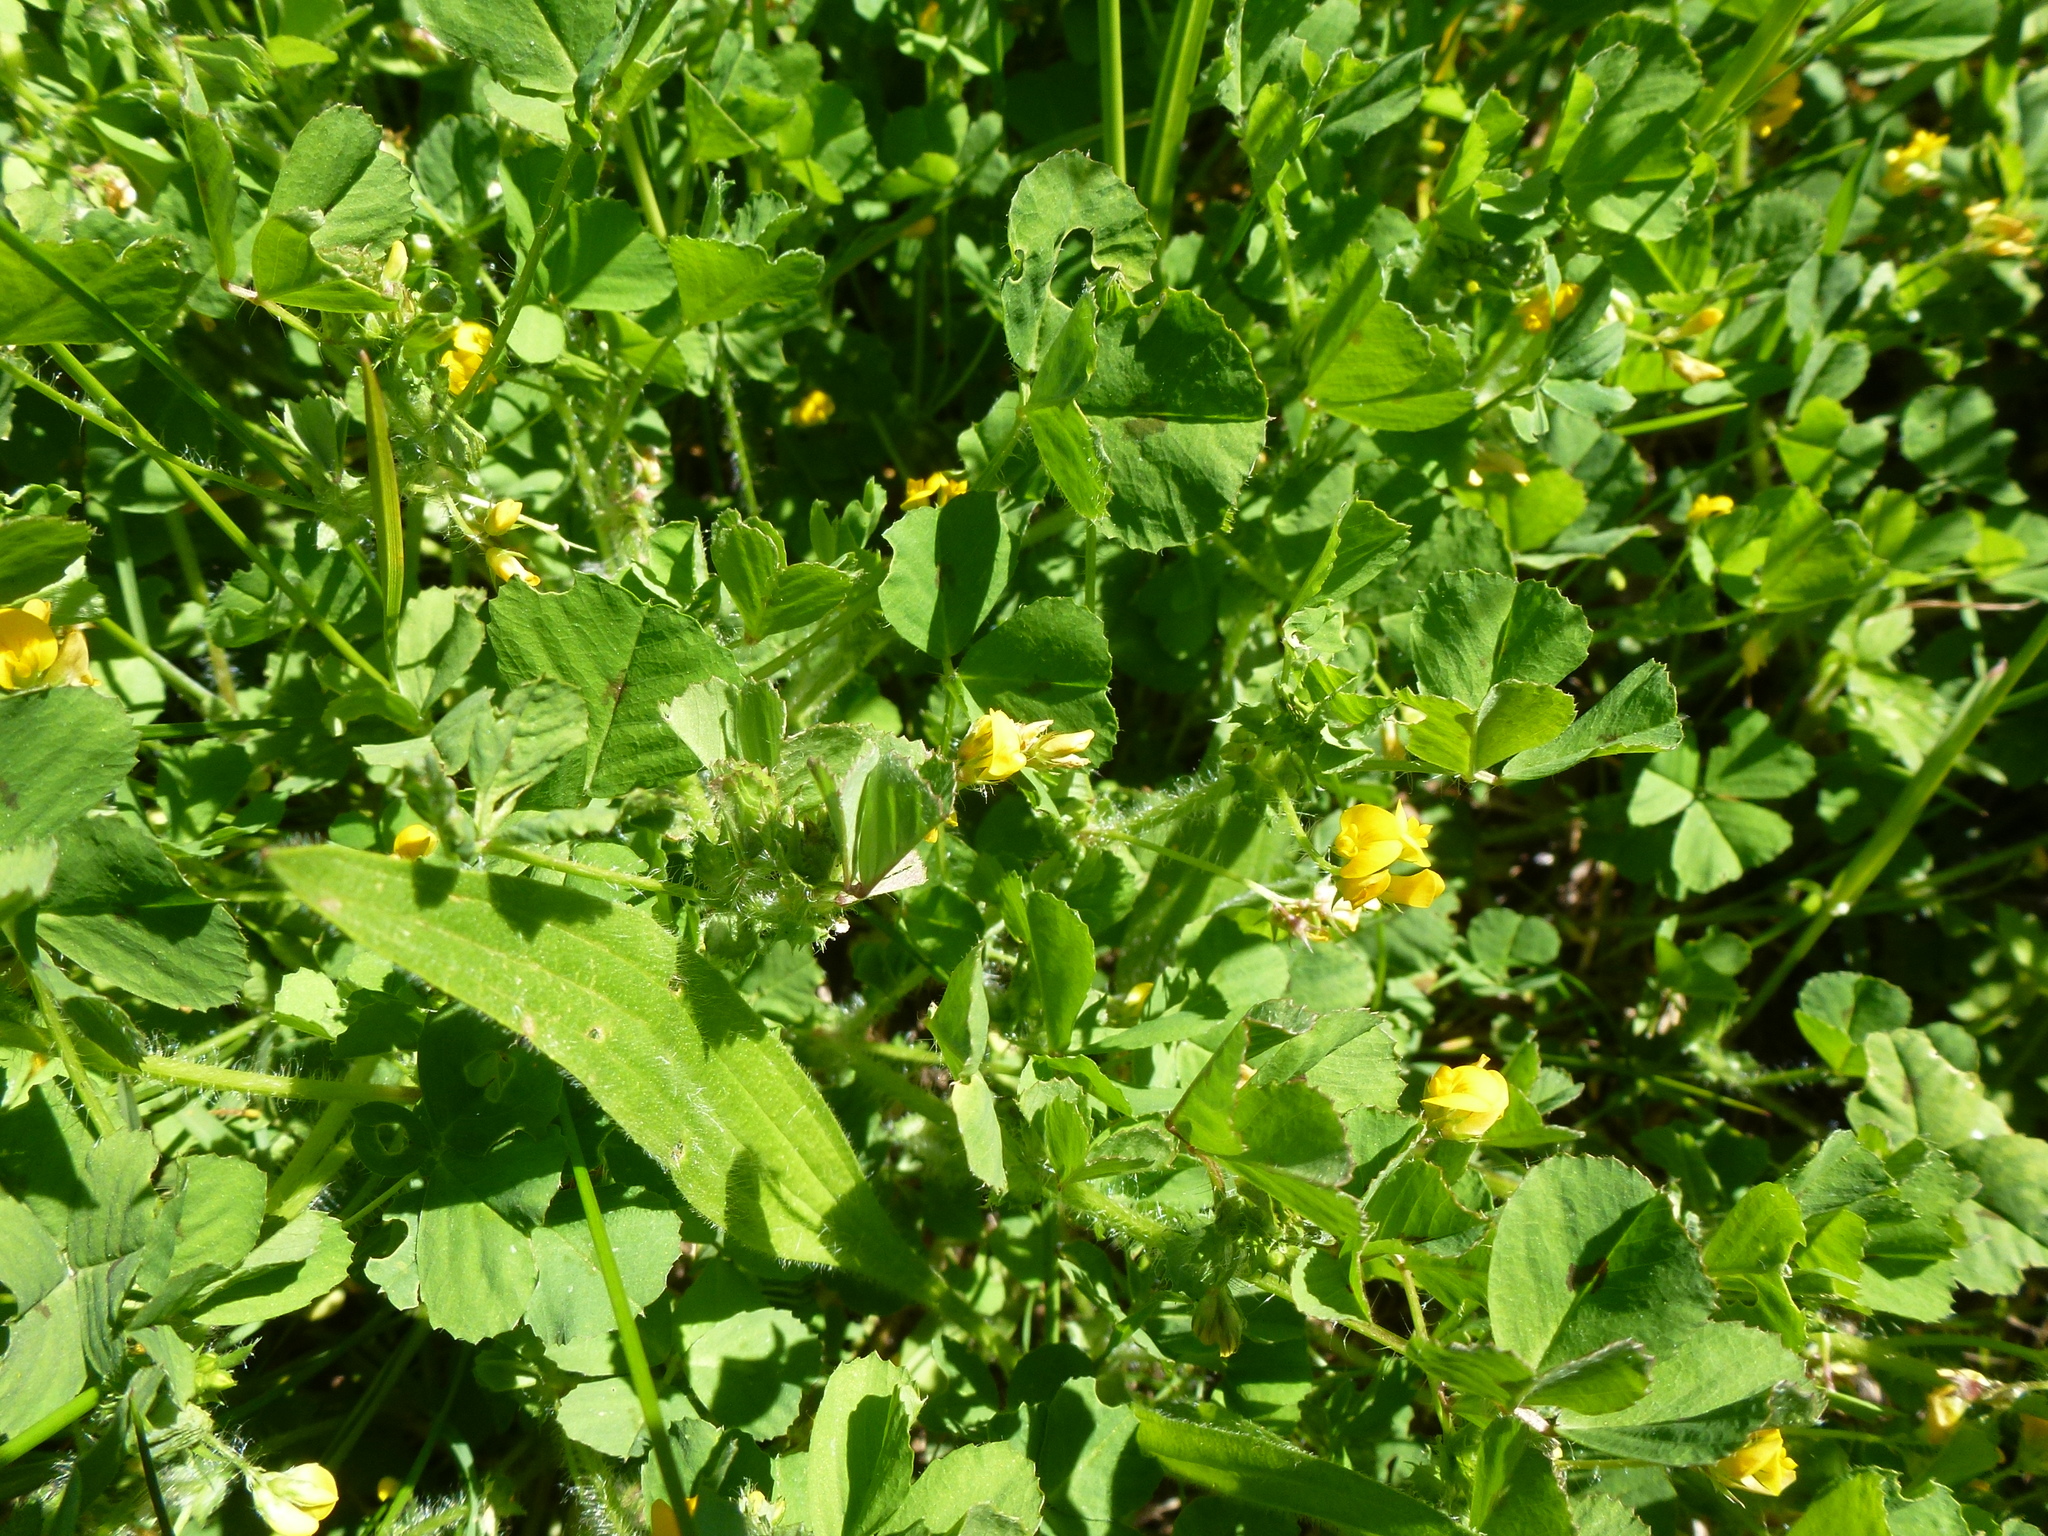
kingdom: Plantae
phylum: Tracheophyta
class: Magnoliopsida
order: Fabales
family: Fabaceae
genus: Medicago
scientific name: Medicago arabica
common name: Spotted medick
